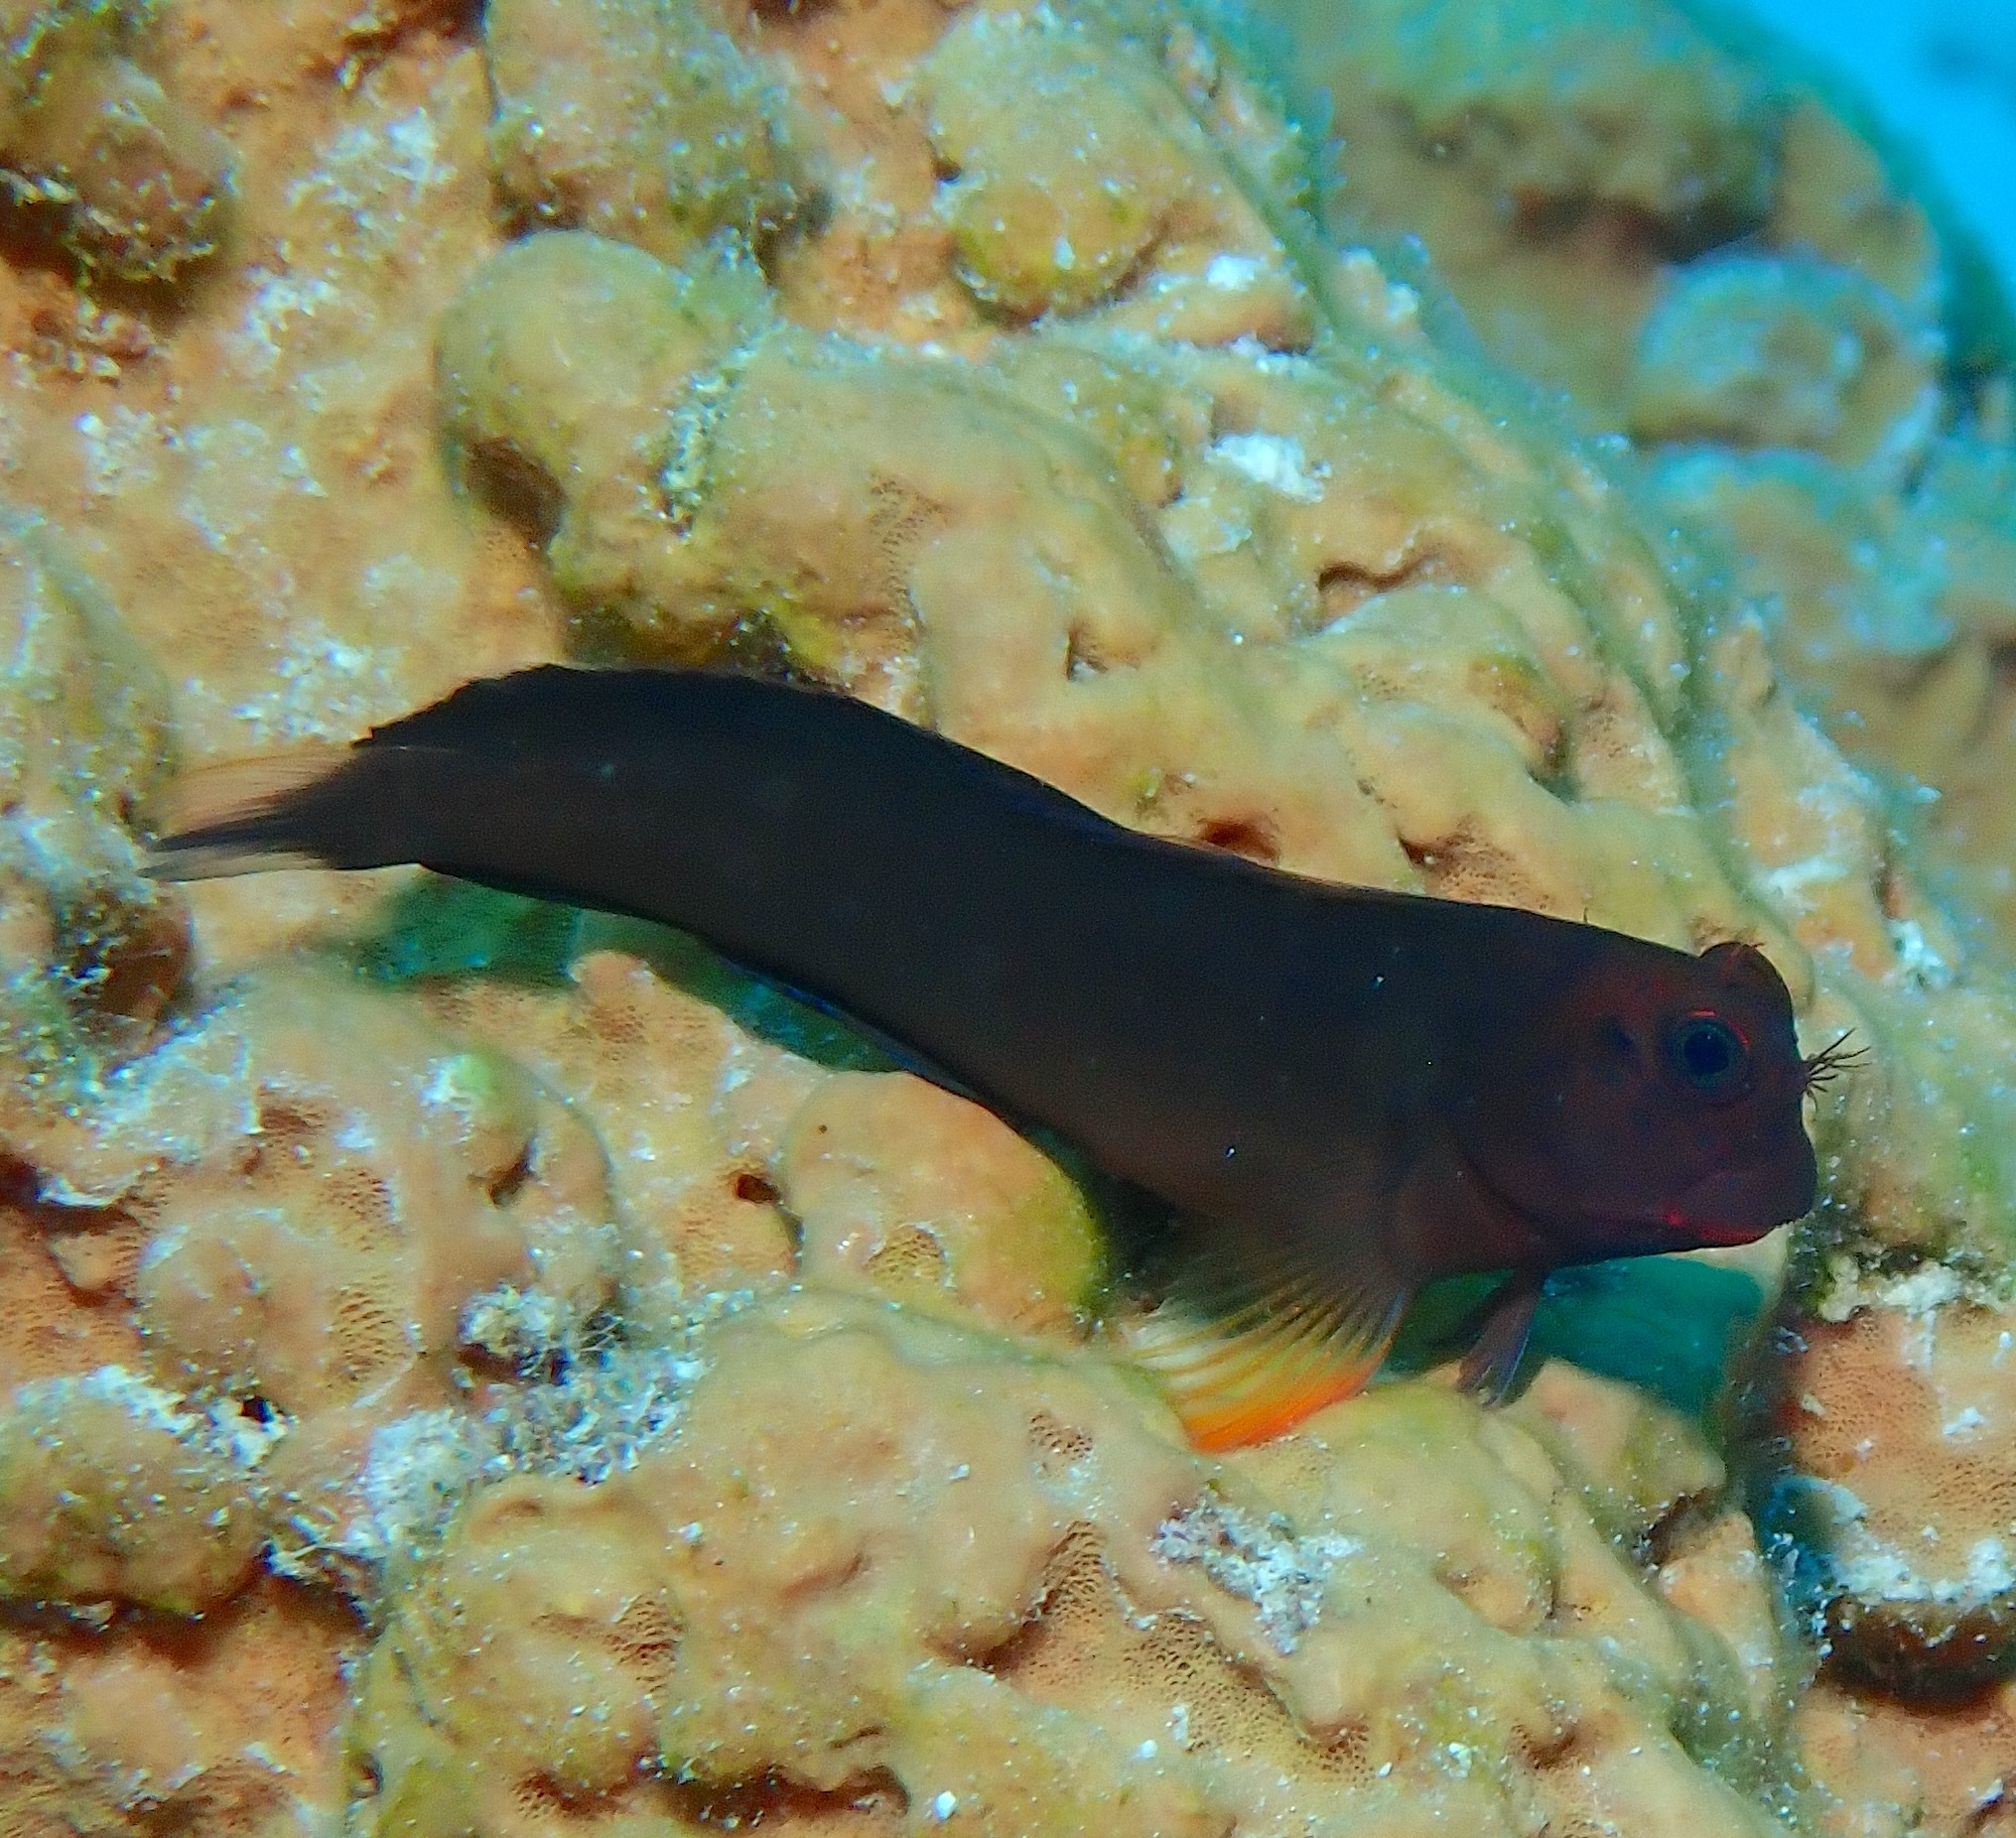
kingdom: Animalia
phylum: Chordata
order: Perciformes
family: Blenniidae
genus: Ophioblennius
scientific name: Ophioblennius macclurei
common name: Redlip blenny
